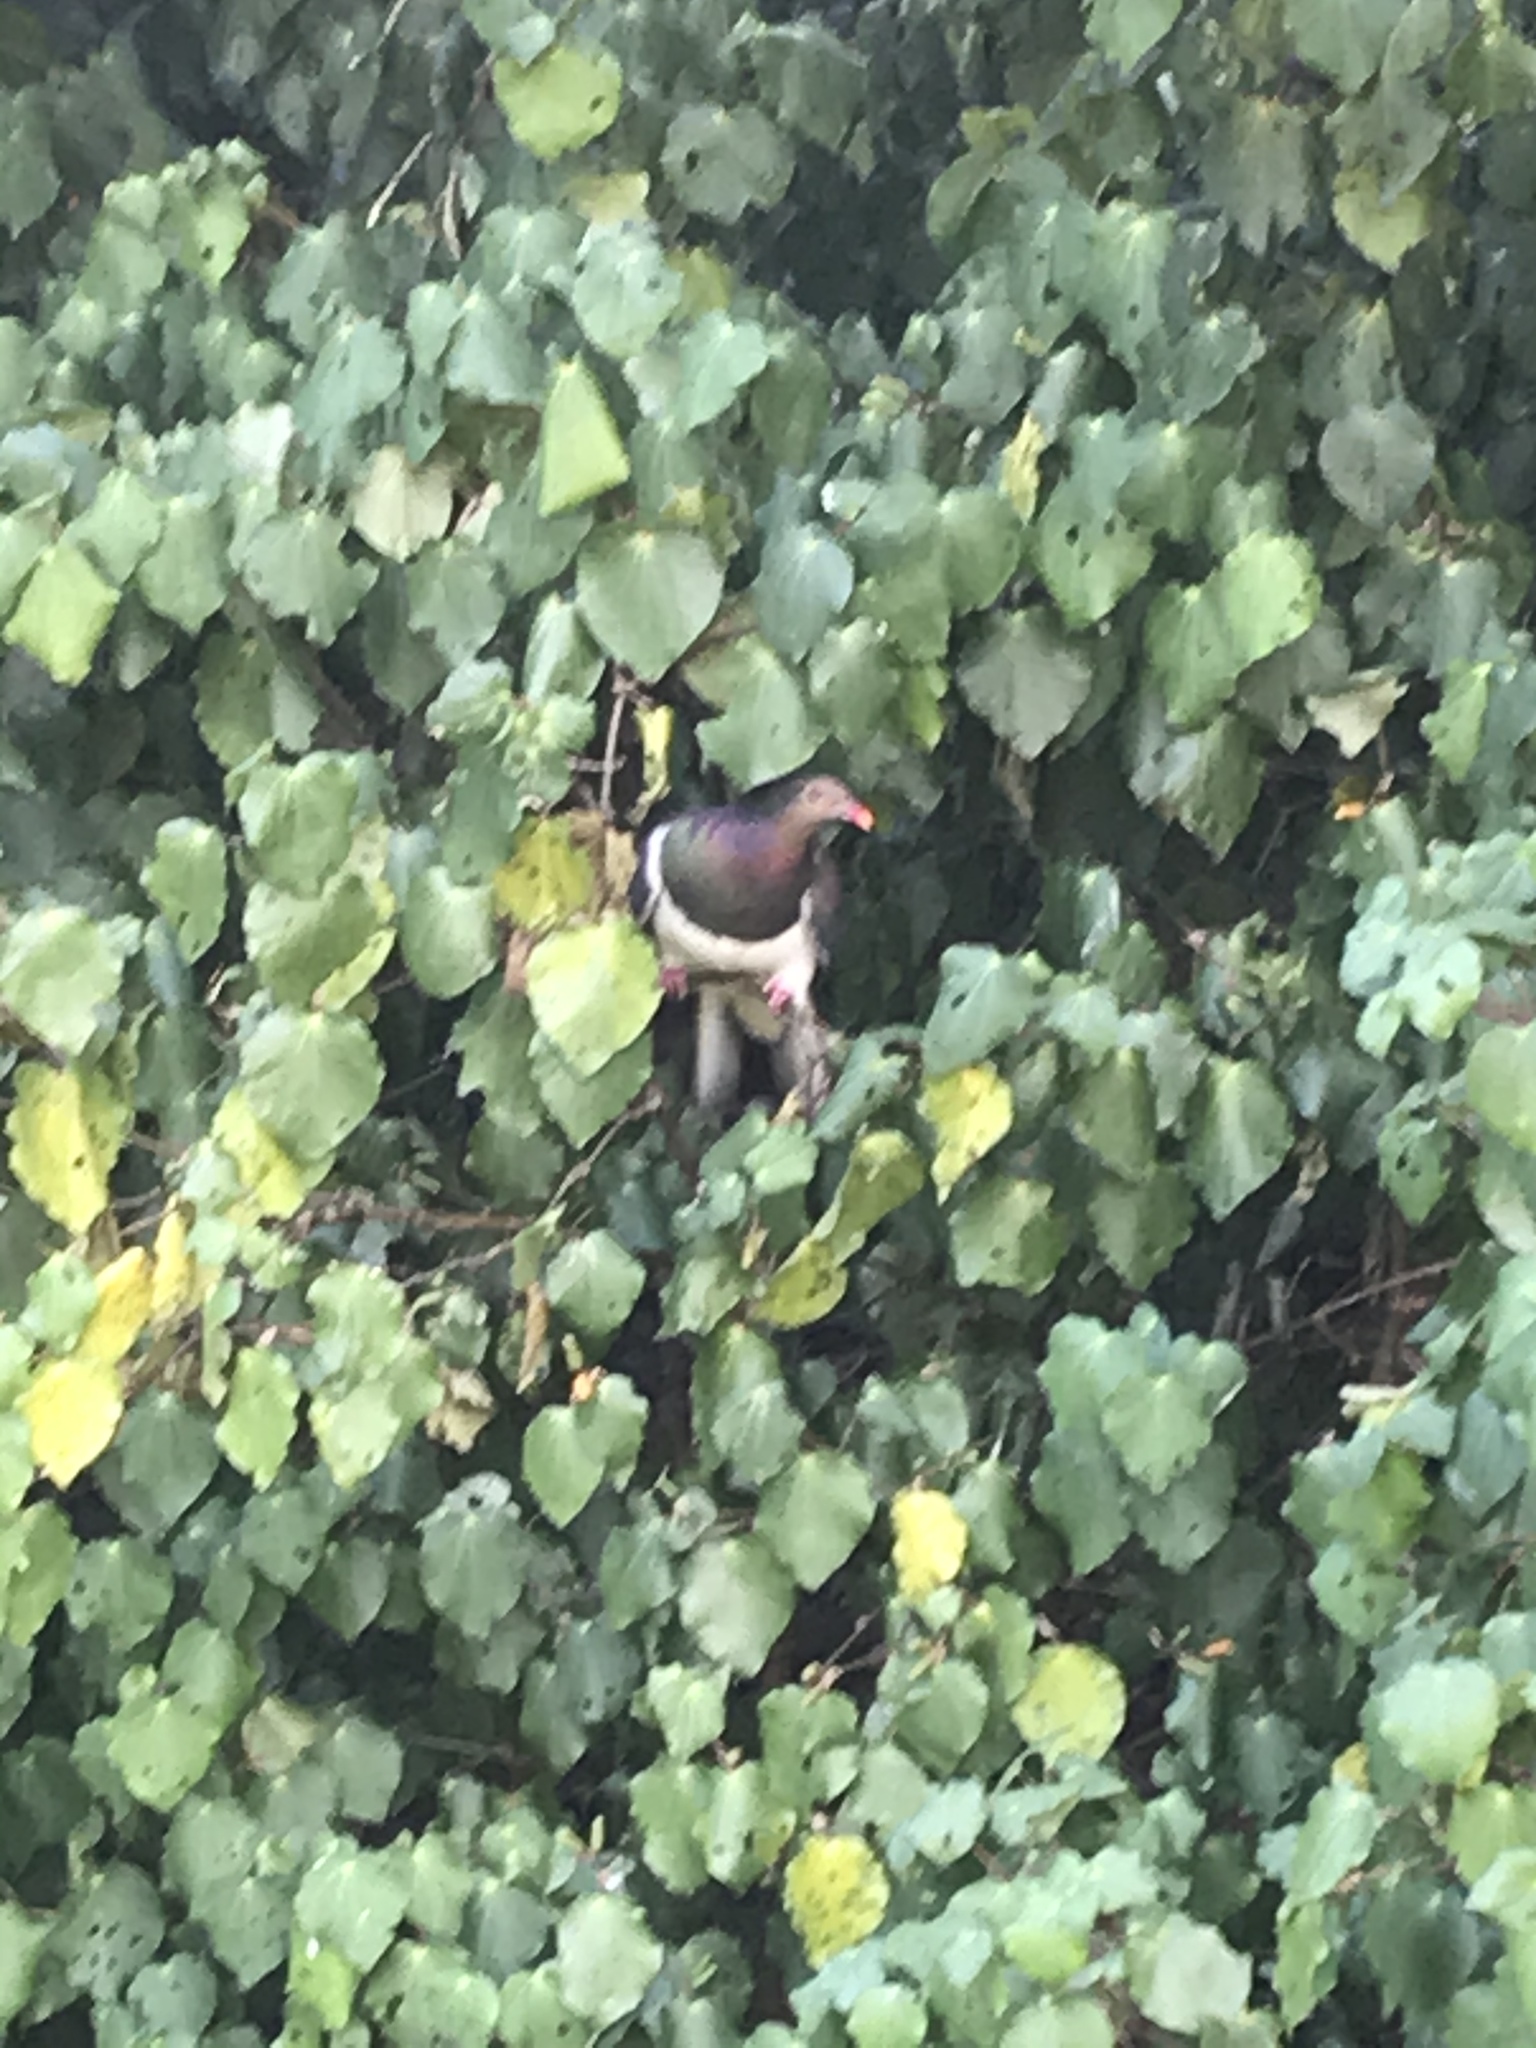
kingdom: Animalia
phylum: Chordata
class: Aves
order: Columbiformes
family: Columbidae
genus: Hemiphaga
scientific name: Hemiphaga novaeseelandiae
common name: New zealand pigeon
